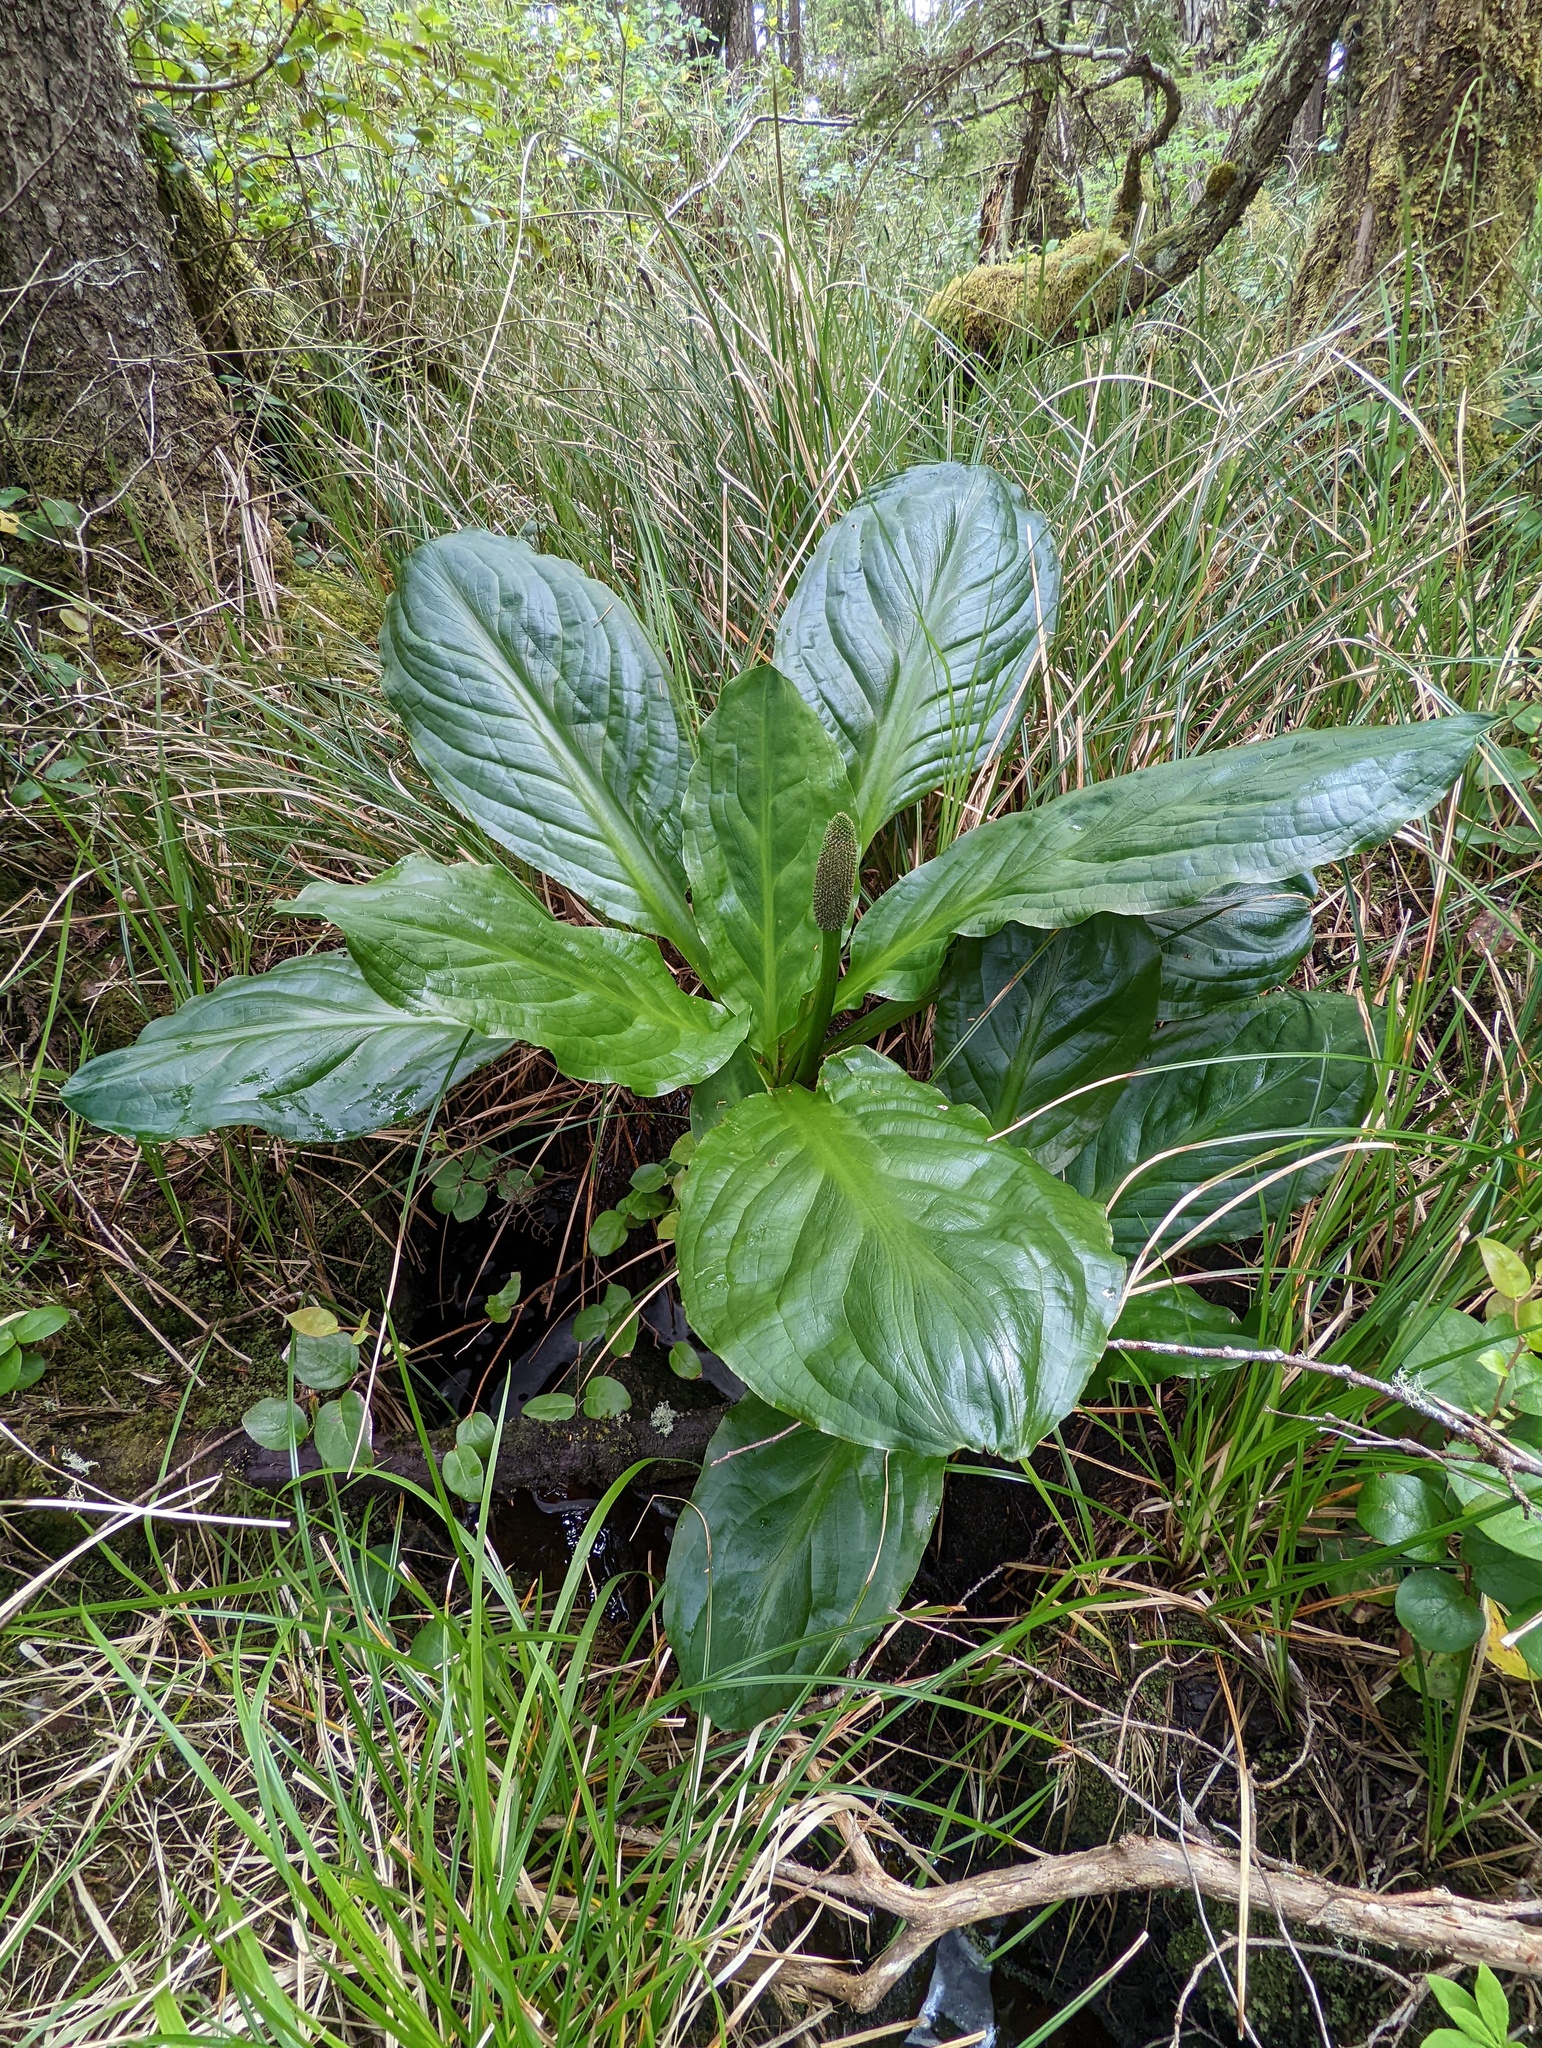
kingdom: Plantae
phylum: Tracheophyta
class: Liliopsida
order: Alismatales
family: Araceae
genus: Lysichiton
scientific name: Lysichiton americanus
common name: American skunk cabbage
